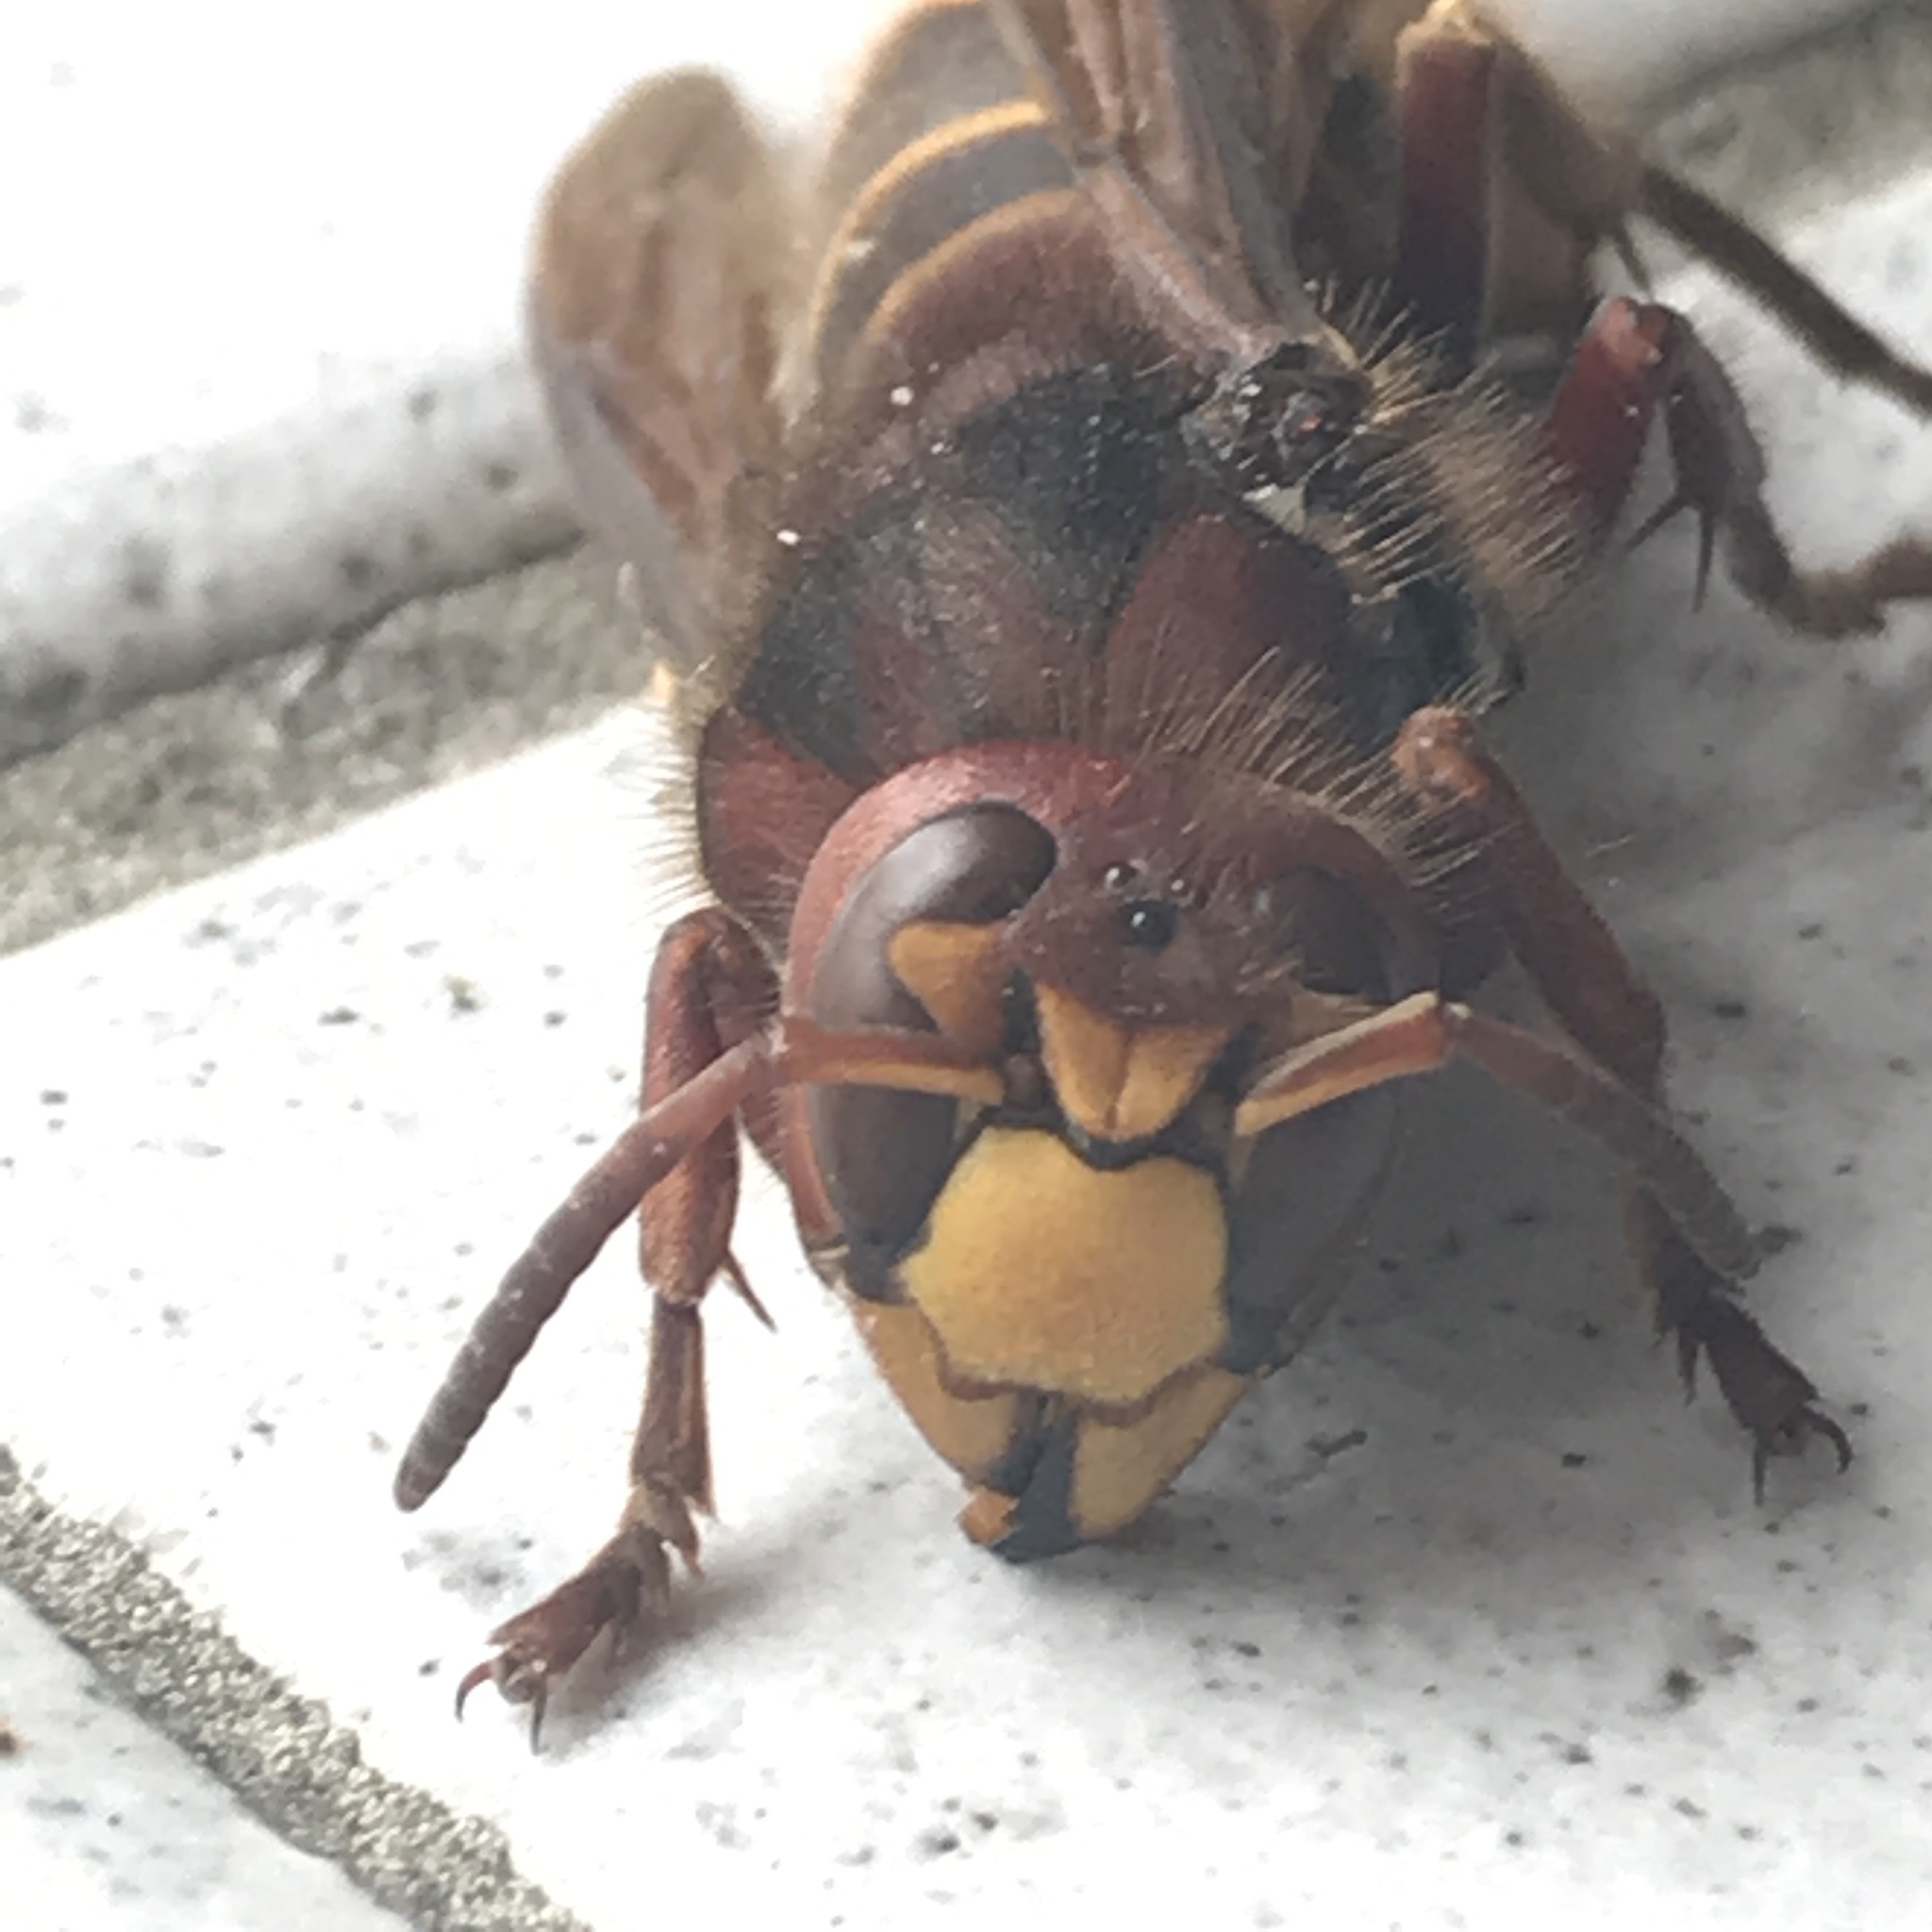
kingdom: Animalia
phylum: Arthropoda
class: Insecta
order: Hymenoptera
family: Vespidae
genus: Vespa
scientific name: Vespa crabro
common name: Hornet
